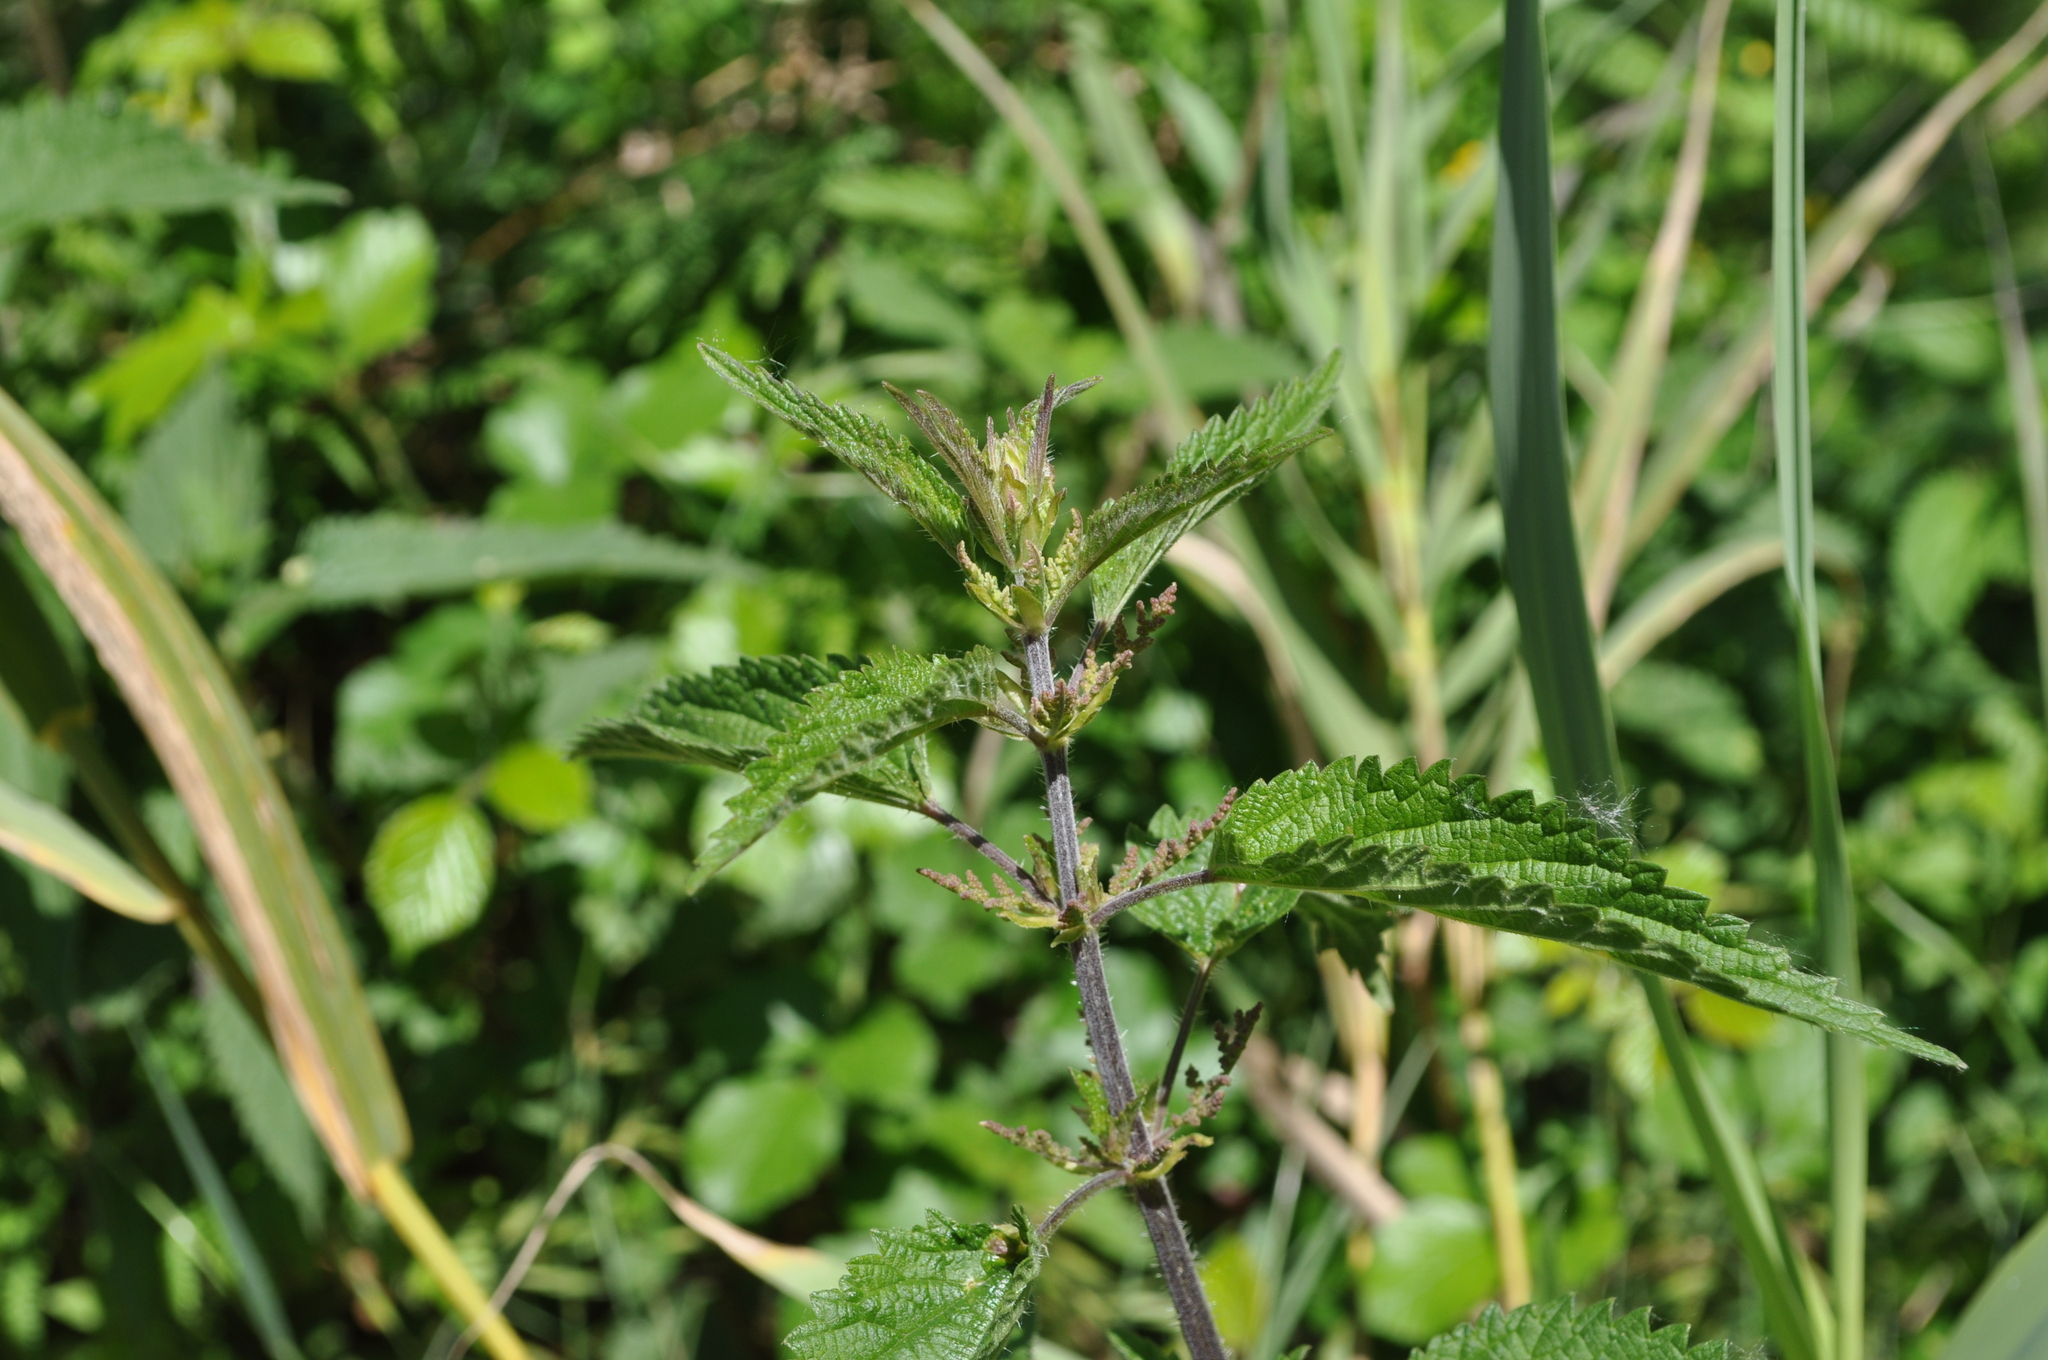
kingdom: Plantae
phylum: Tracheophyta
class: Magnoliopsida
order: Rosales
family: Urticaceae
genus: Urtica
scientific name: Urtica dioica
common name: Common nettle
